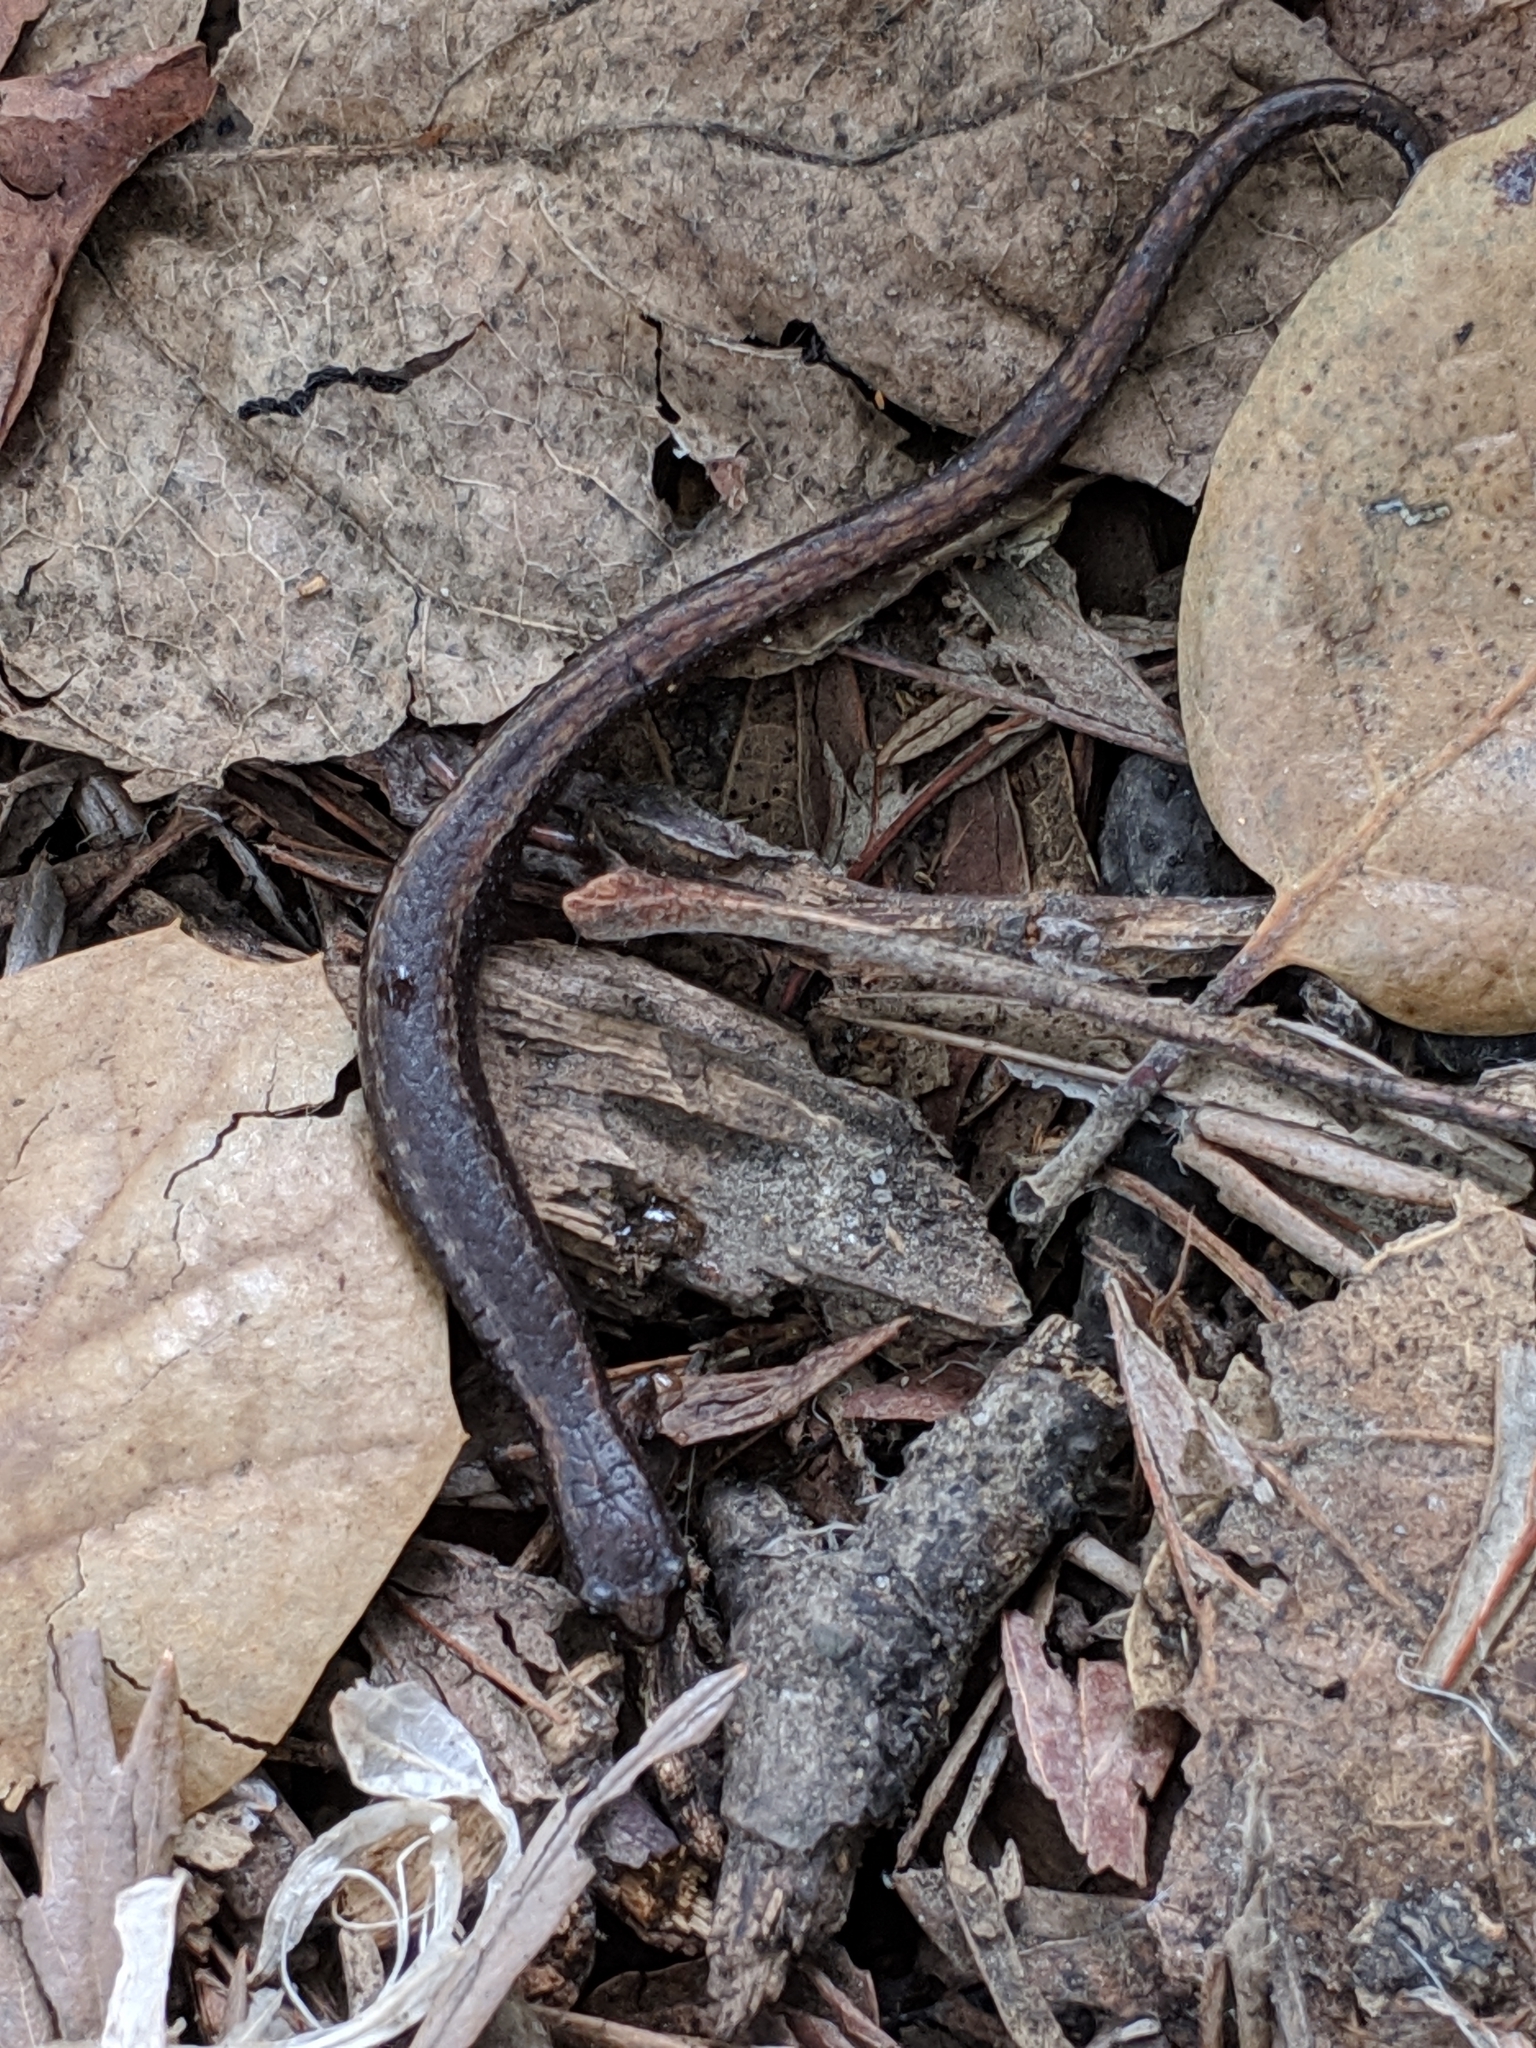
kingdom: Animalia
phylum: Chordata
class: Amphibia
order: Caudata
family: Plethodontidae
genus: Batrachoseps
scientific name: Batrachoseps attenuatus
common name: California slender salamander
